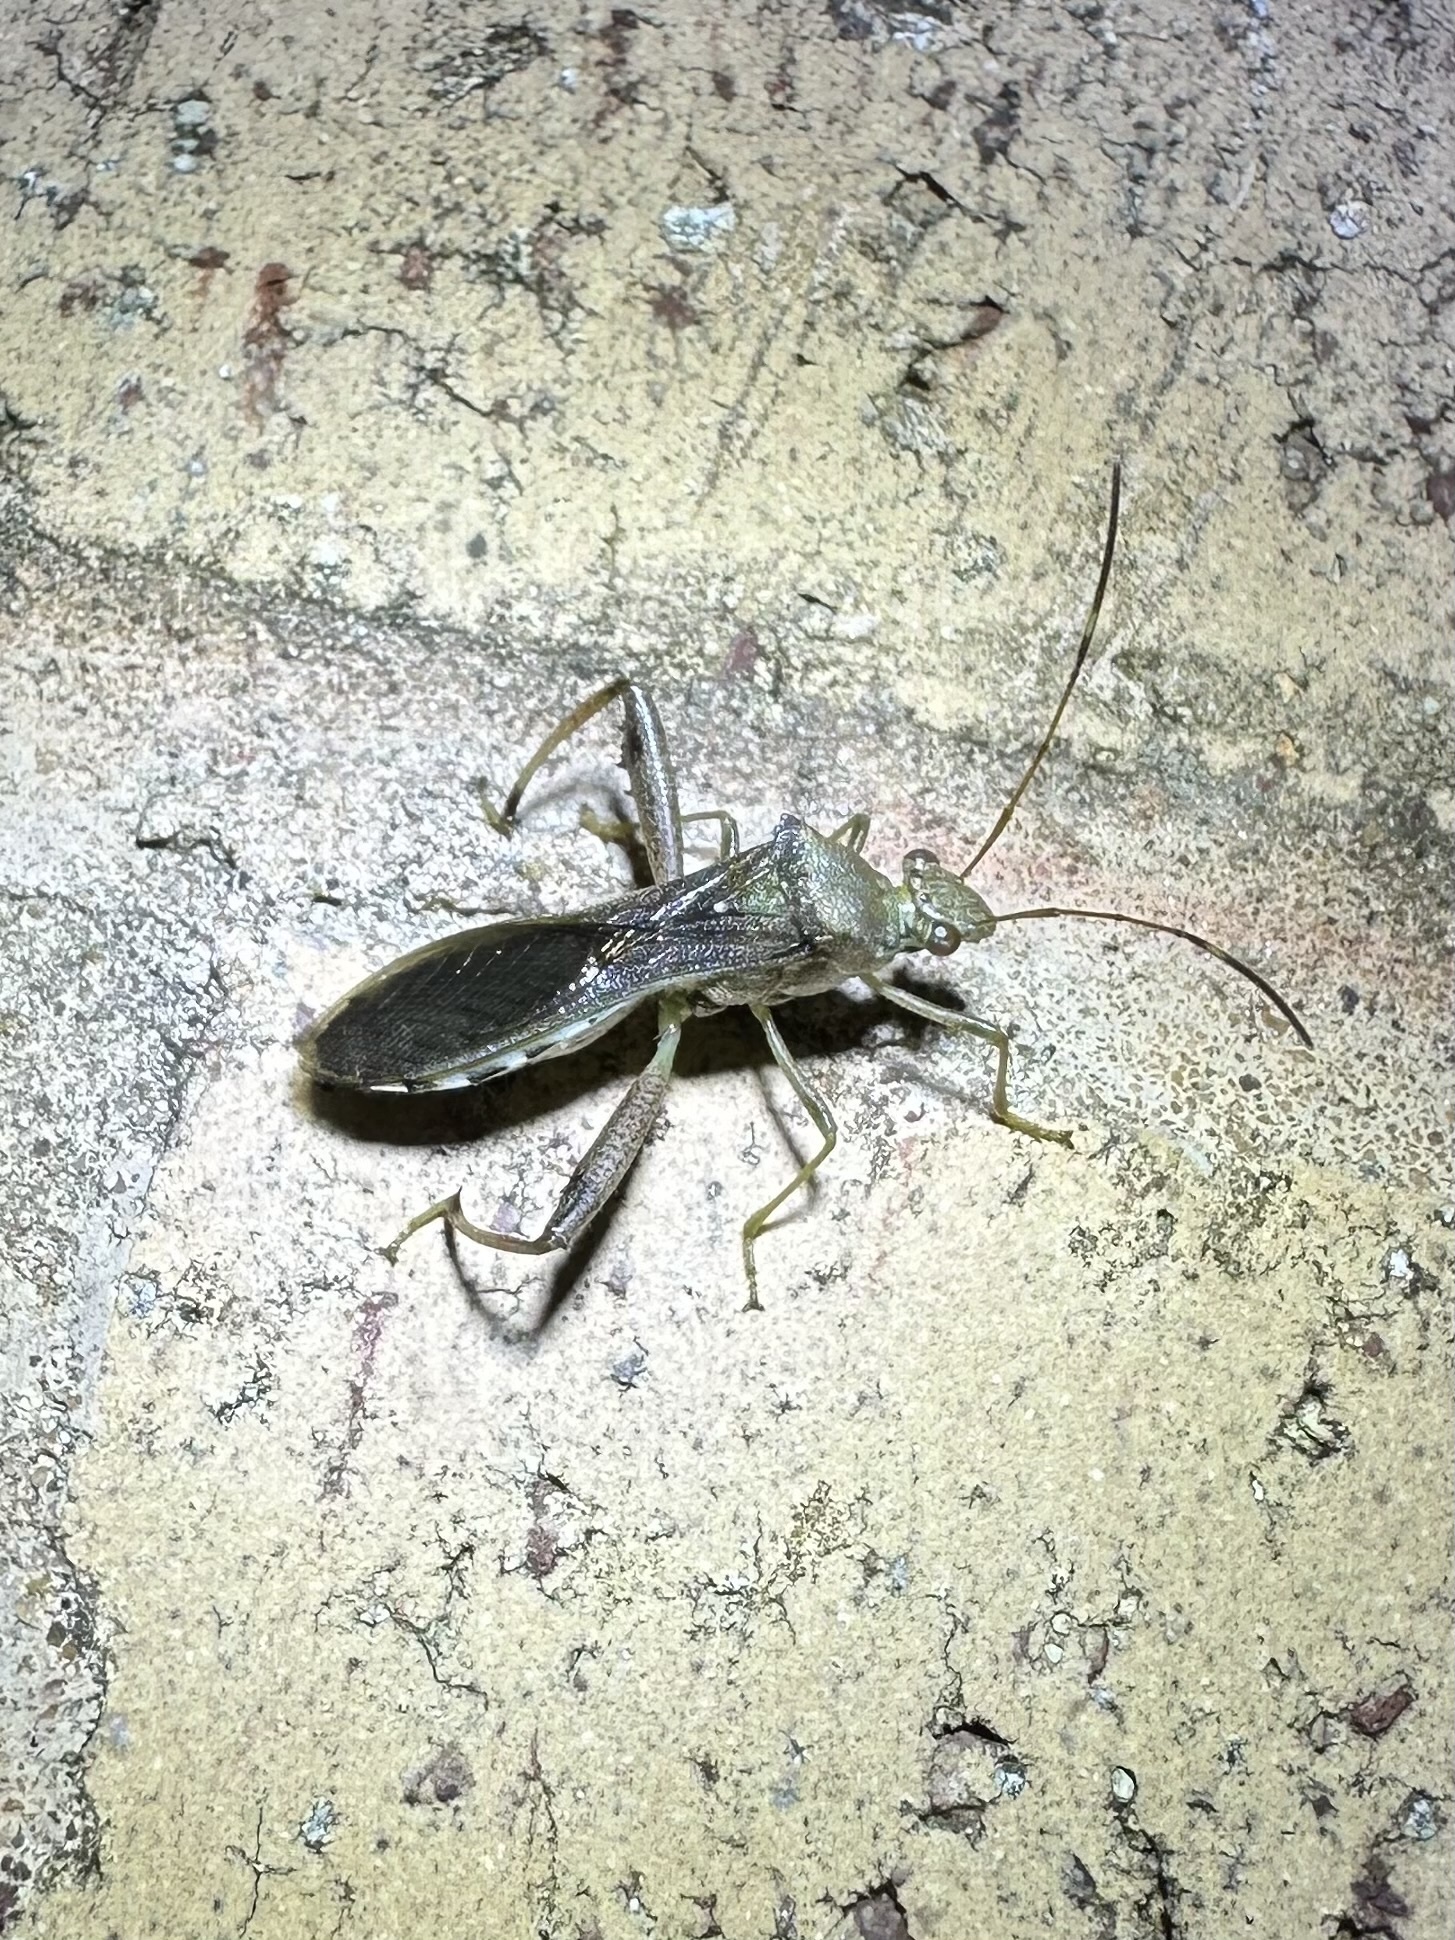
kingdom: Animalia
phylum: Arthropoda
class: Insecta
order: Hemiptera
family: Alydidae
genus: Hyalymenus
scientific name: Hyalymenus tarsatus
